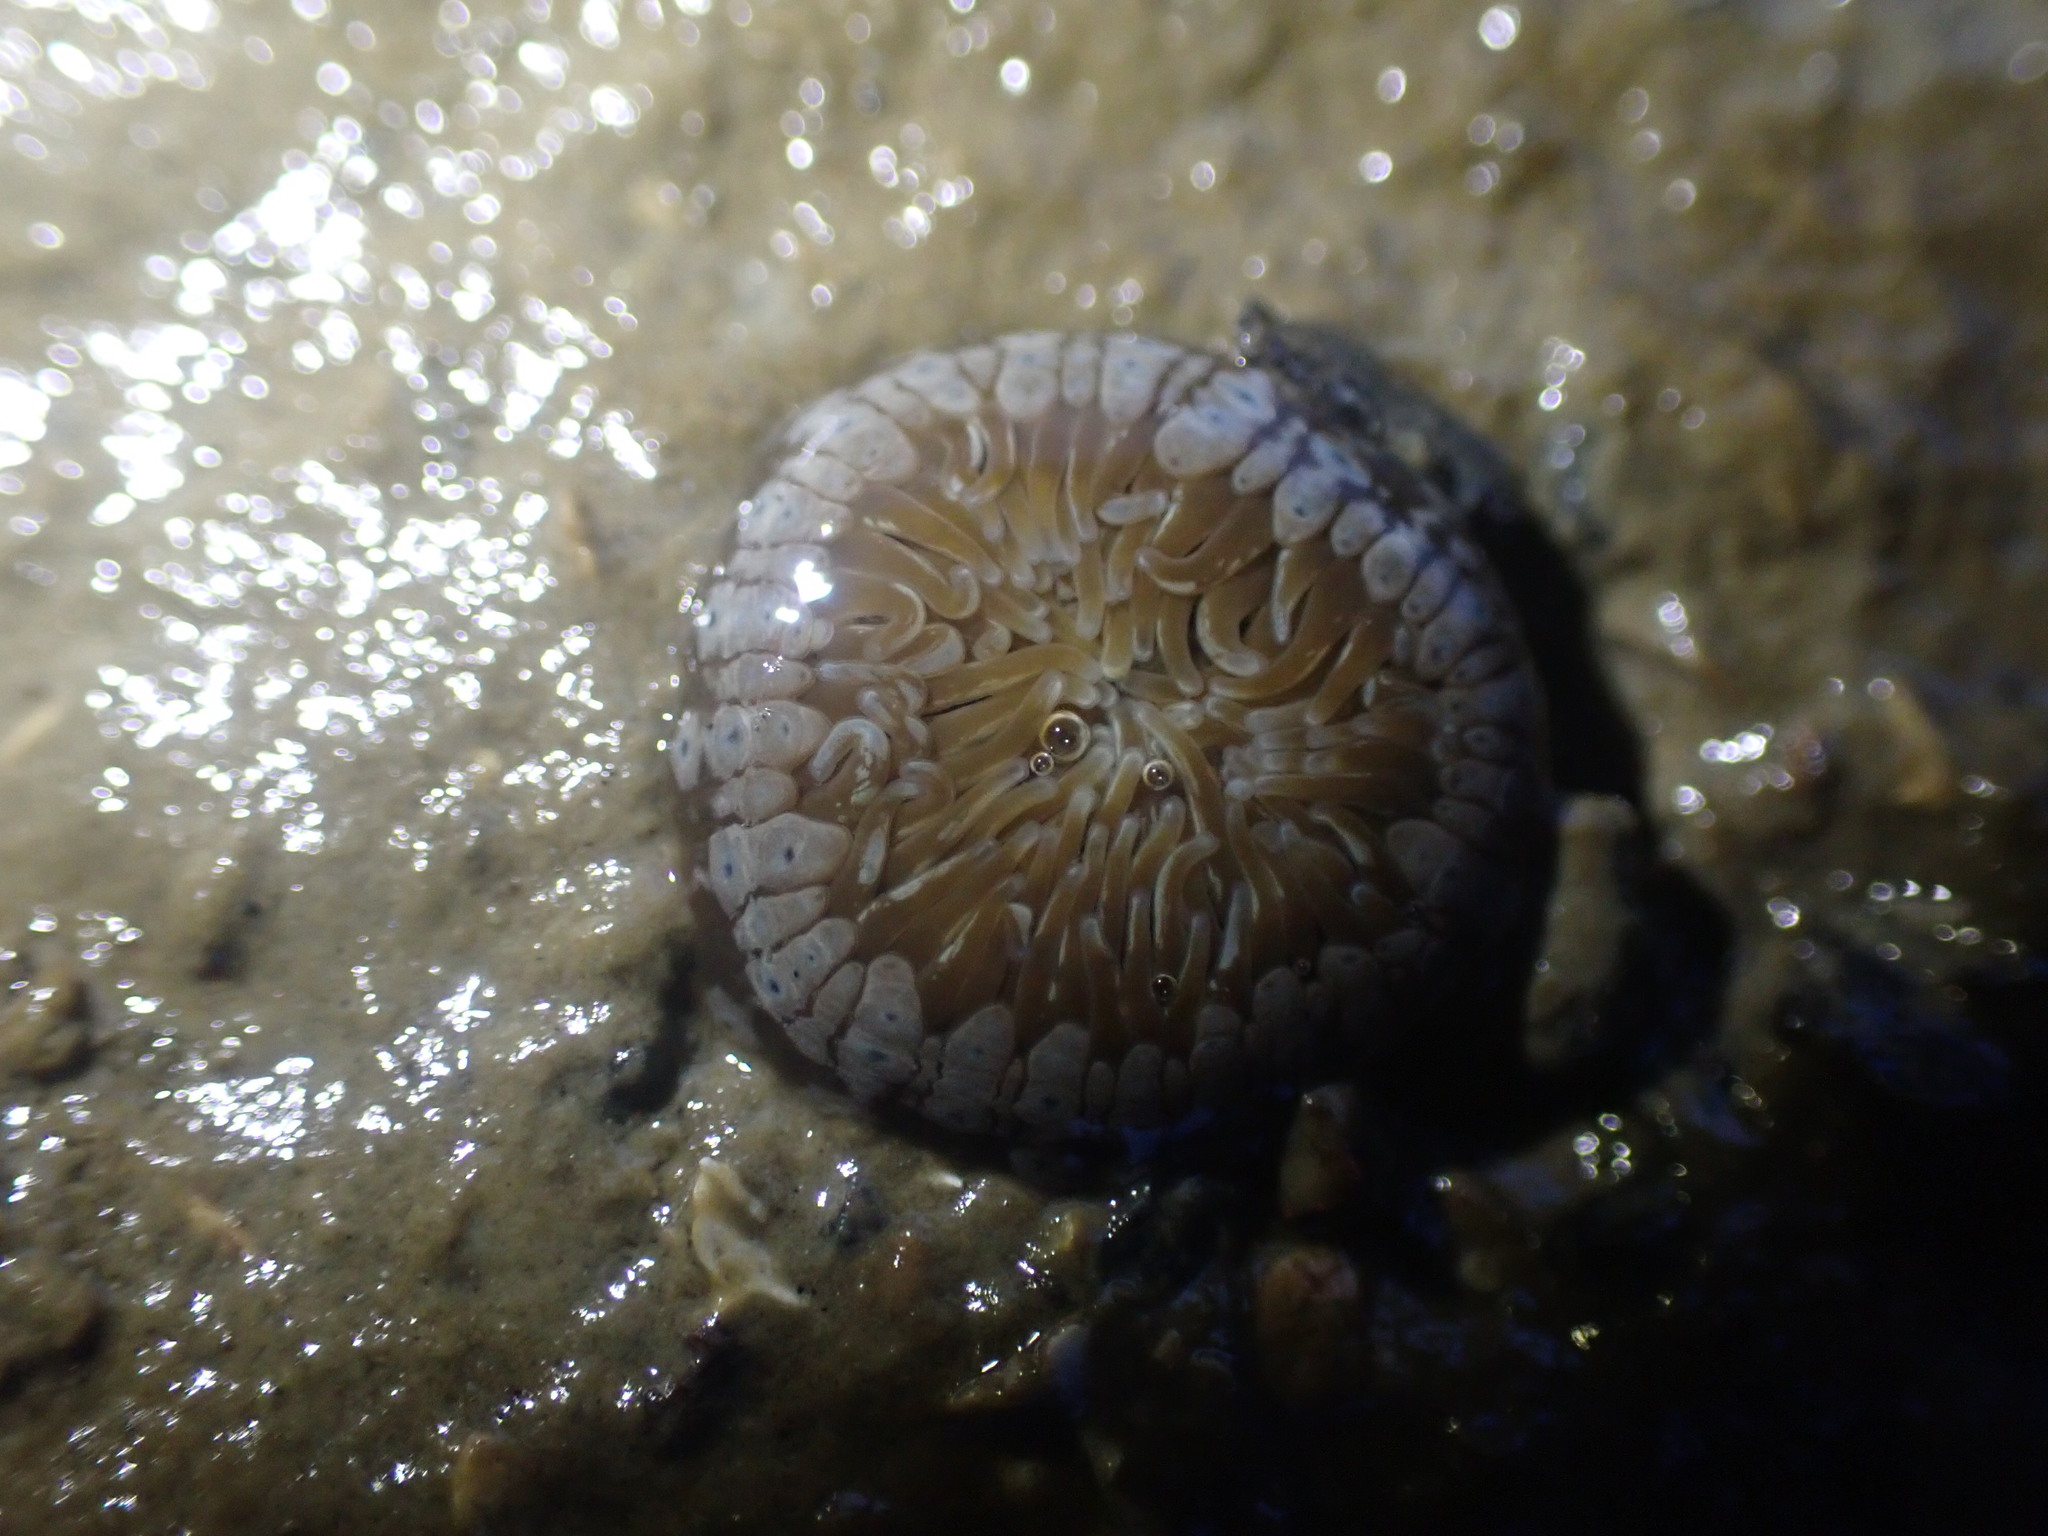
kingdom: Animalia
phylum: Cnidaria
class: Anthozoa
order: Actiniaria
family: Actiniidae
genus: Anthopleura
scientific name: Anthopleura hermaphroditica
